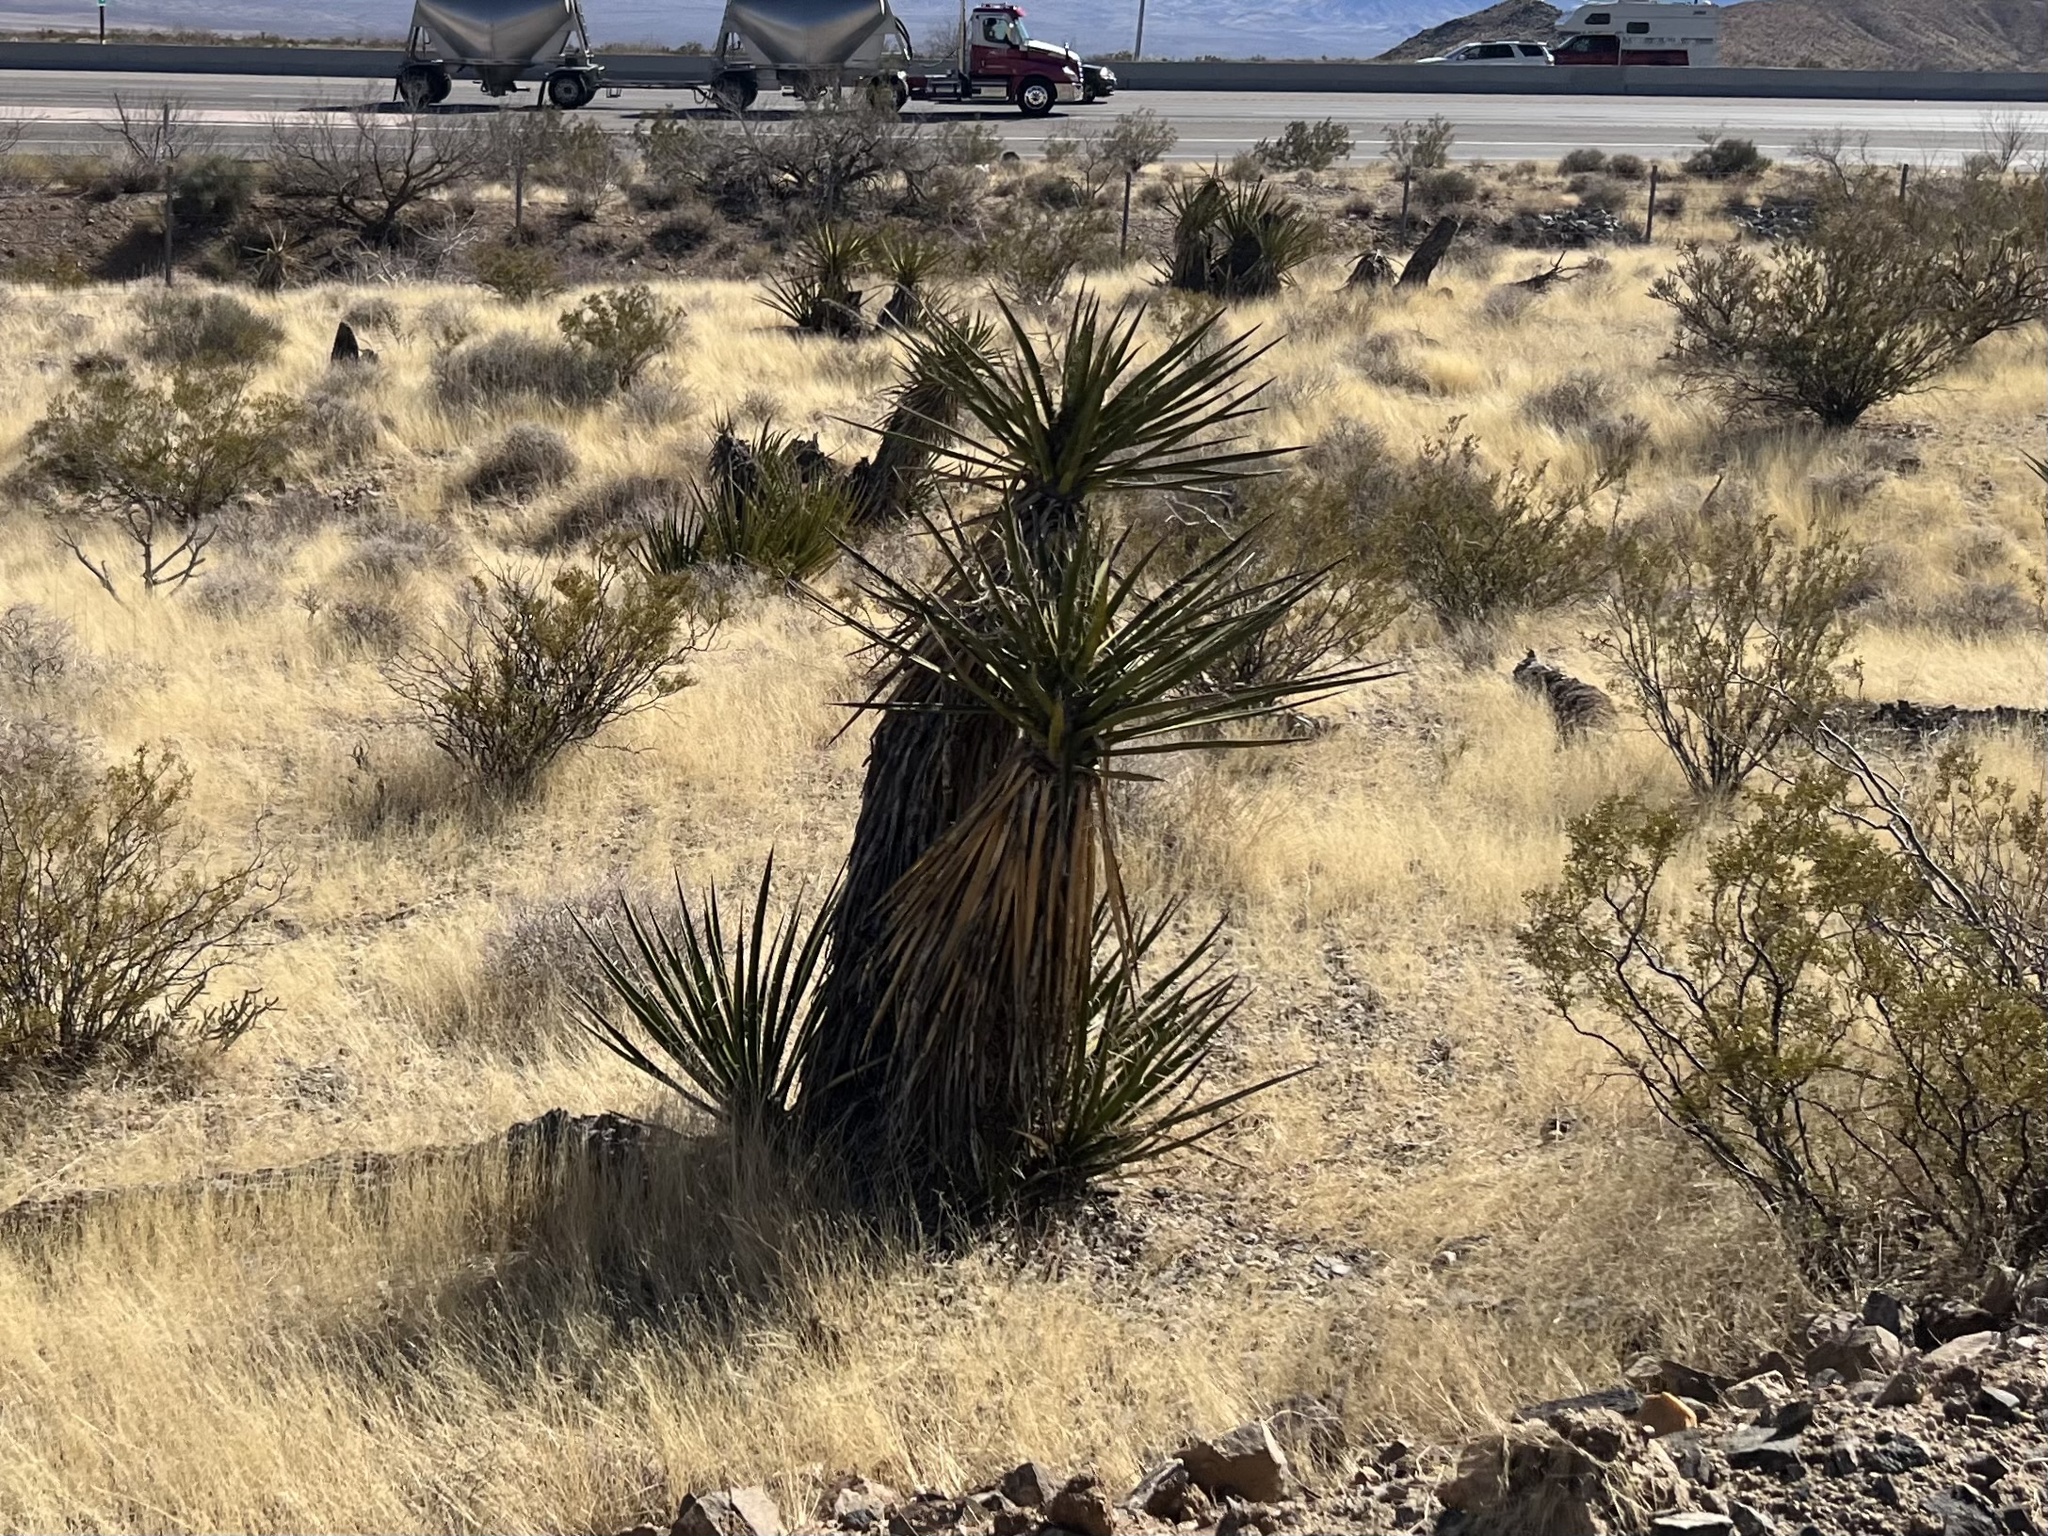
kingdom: Plantae
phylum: Tracheophyta
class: Liliopsida
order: Asparagales
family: Asparagaceae
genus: Yucca
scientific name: Yucca schidigera
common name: Mojave yucca
